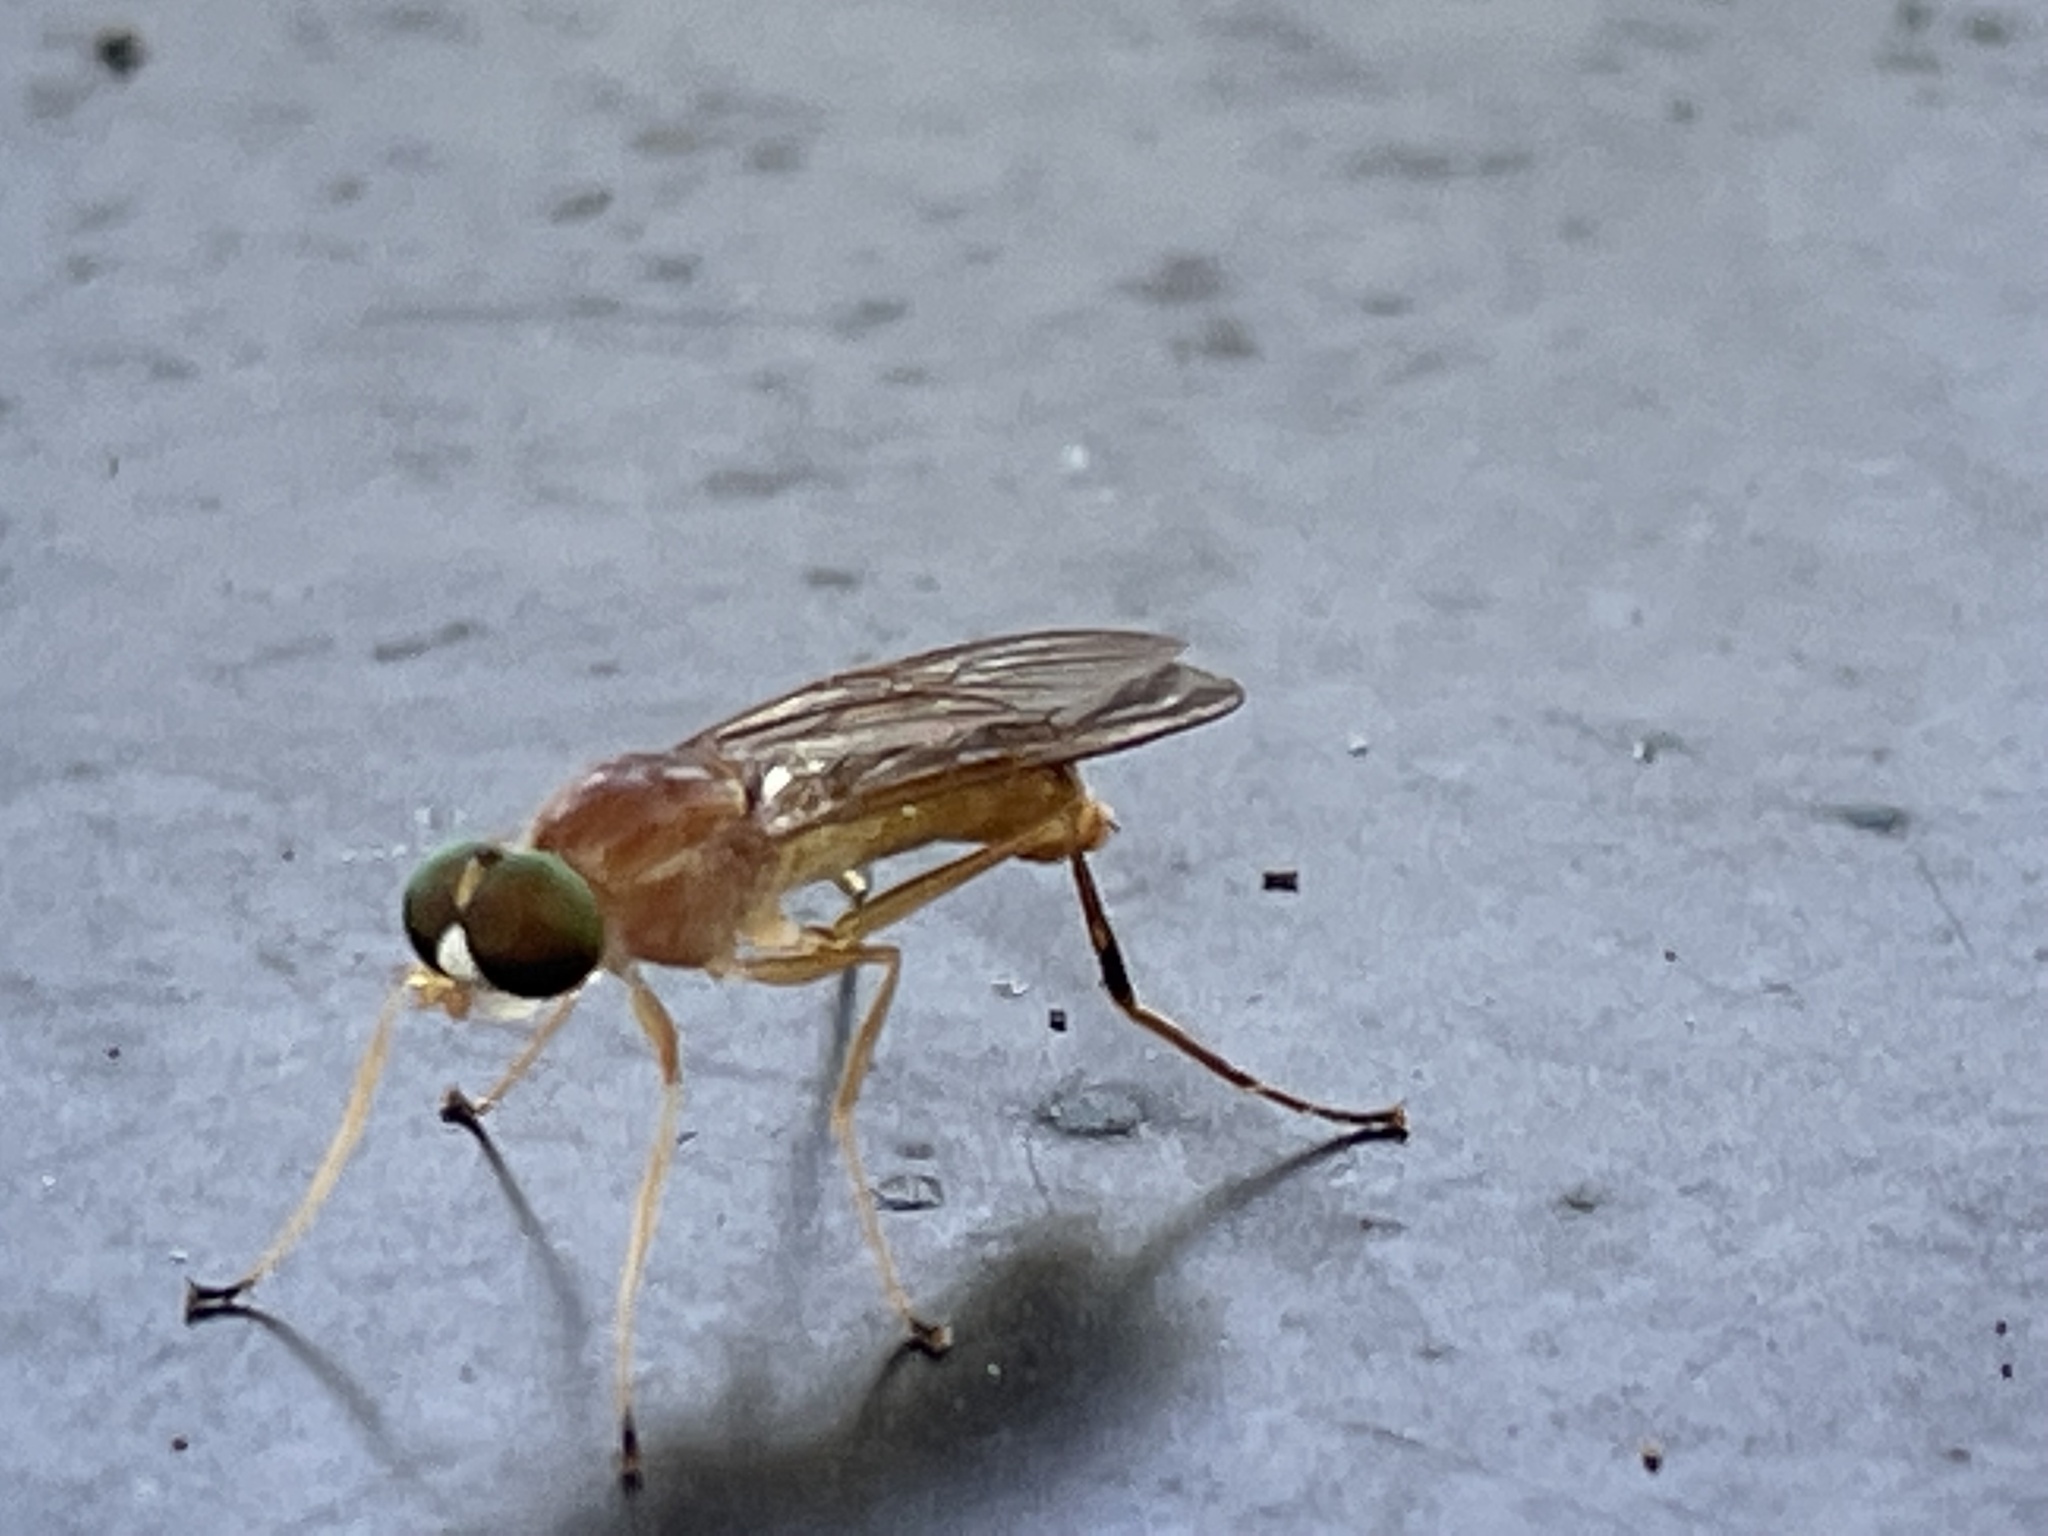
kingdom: Animalia
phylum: Arthropoda
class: Insecta
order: Diptera
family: Stratiomyidae
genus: Ptecticus
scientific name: Ptecticus trivittatus
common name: Compost fly
